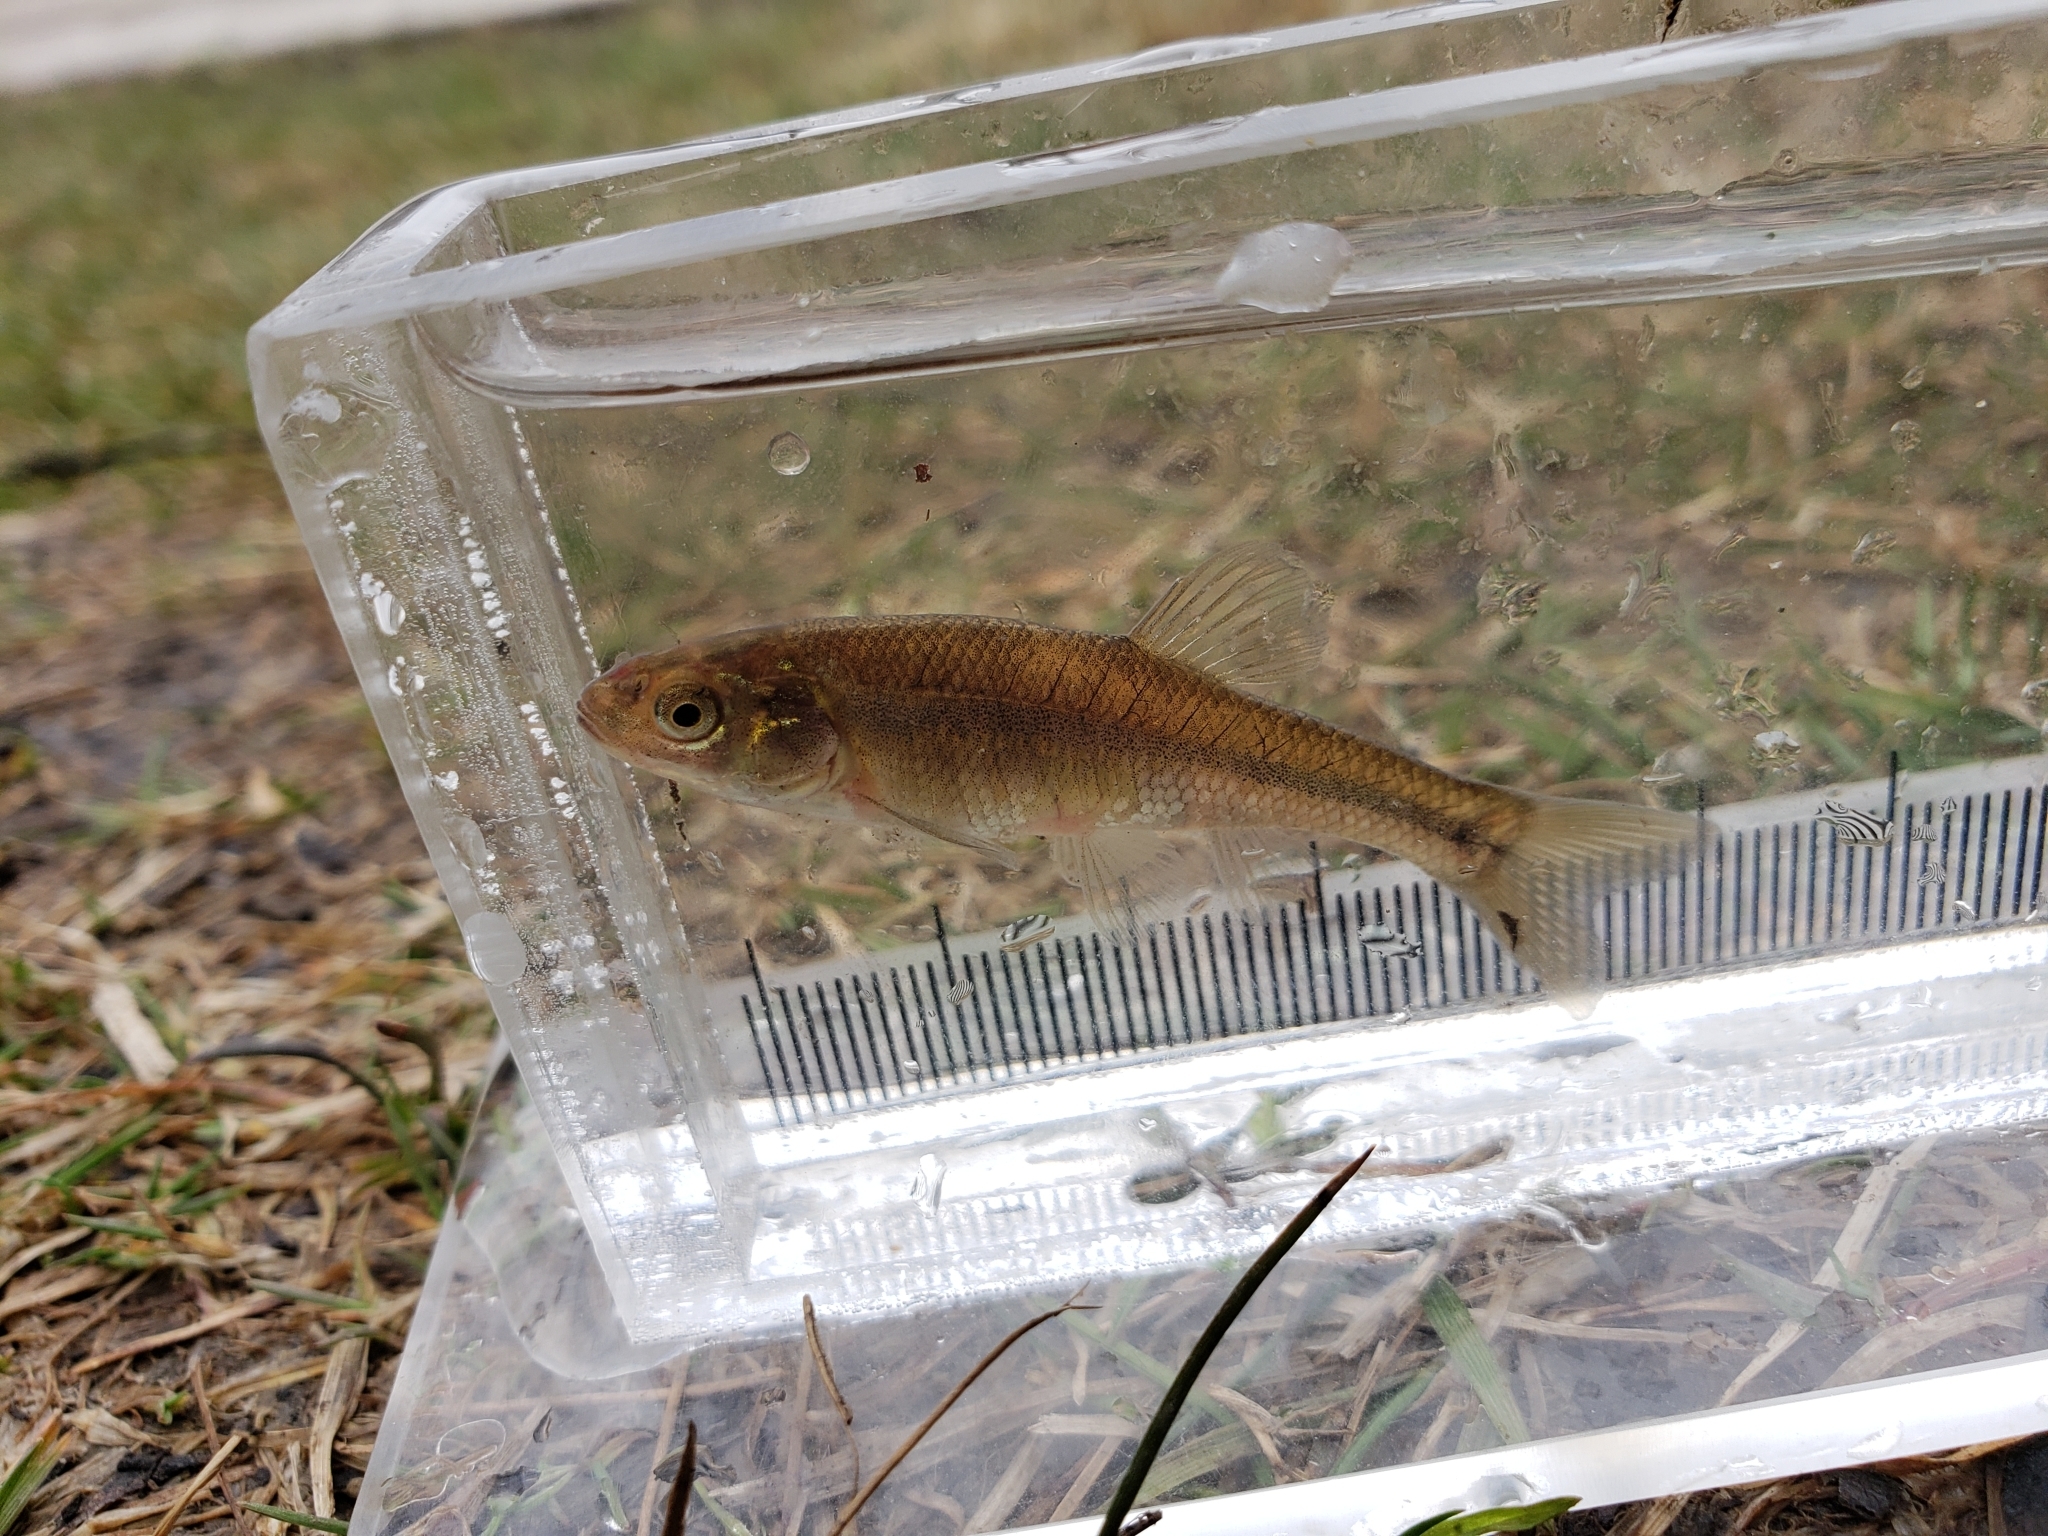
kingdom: Animalia
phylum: Chordata
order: Cypriniformes
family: Cyprinidae
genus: Pimephales
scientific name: Pimephales promelas
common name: Fathead minnow
